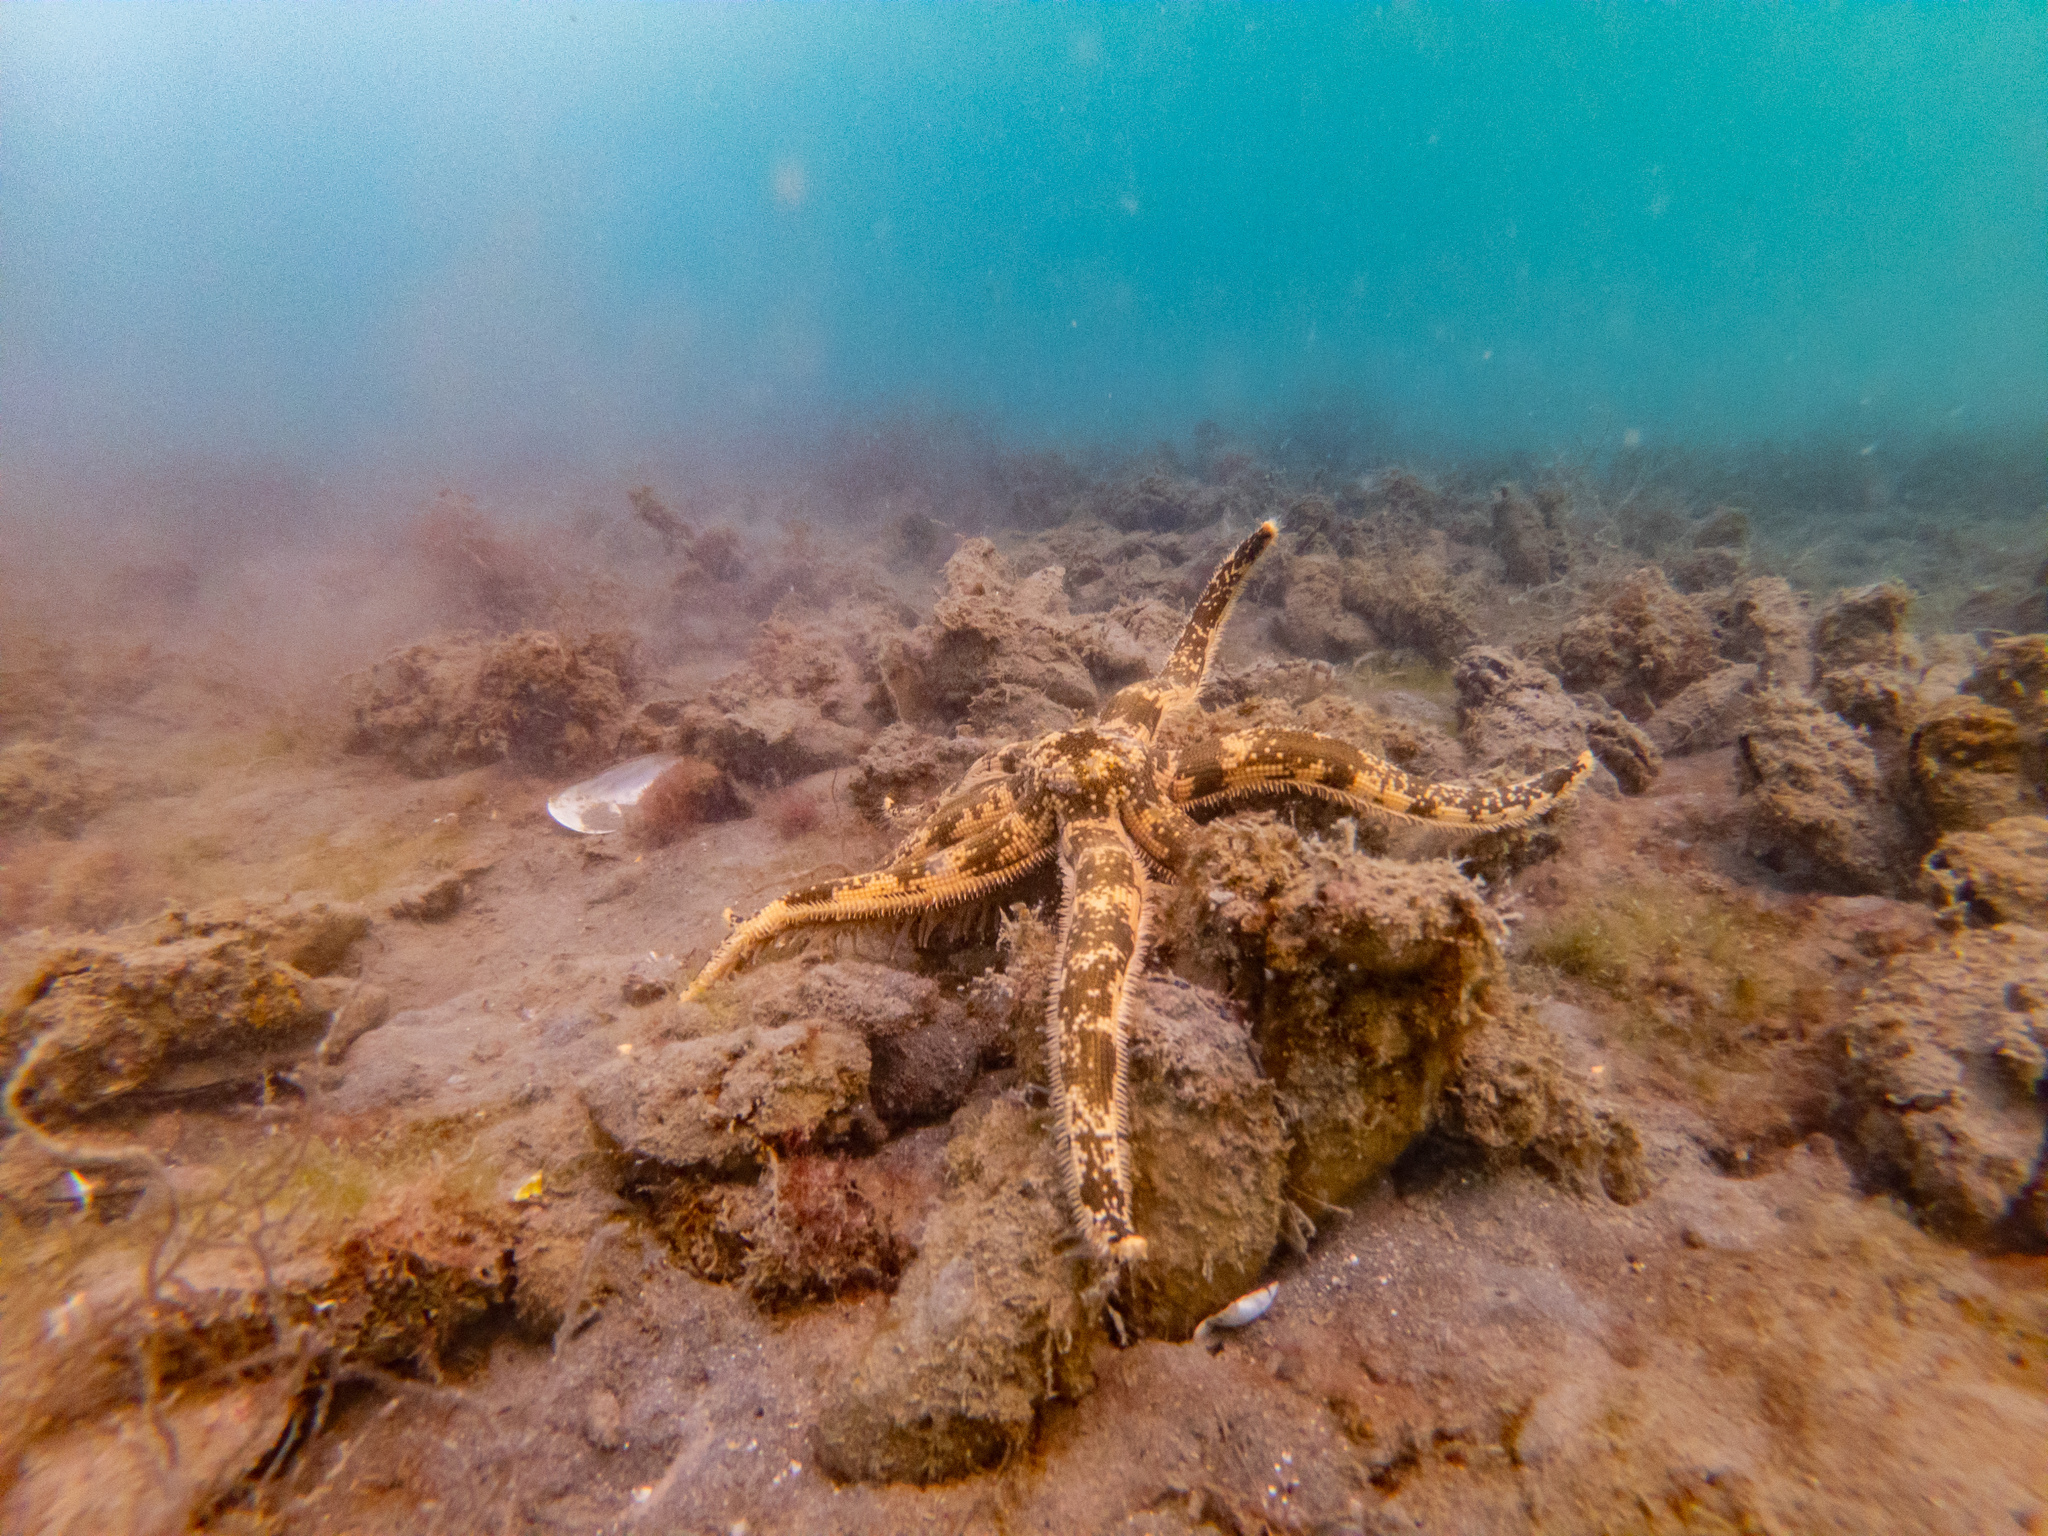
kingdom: Animalia
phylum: Echinodermata
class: Asteroidea
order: Paxillosida
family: Luidiidae
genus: Luidia
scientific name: Luidia australiae
